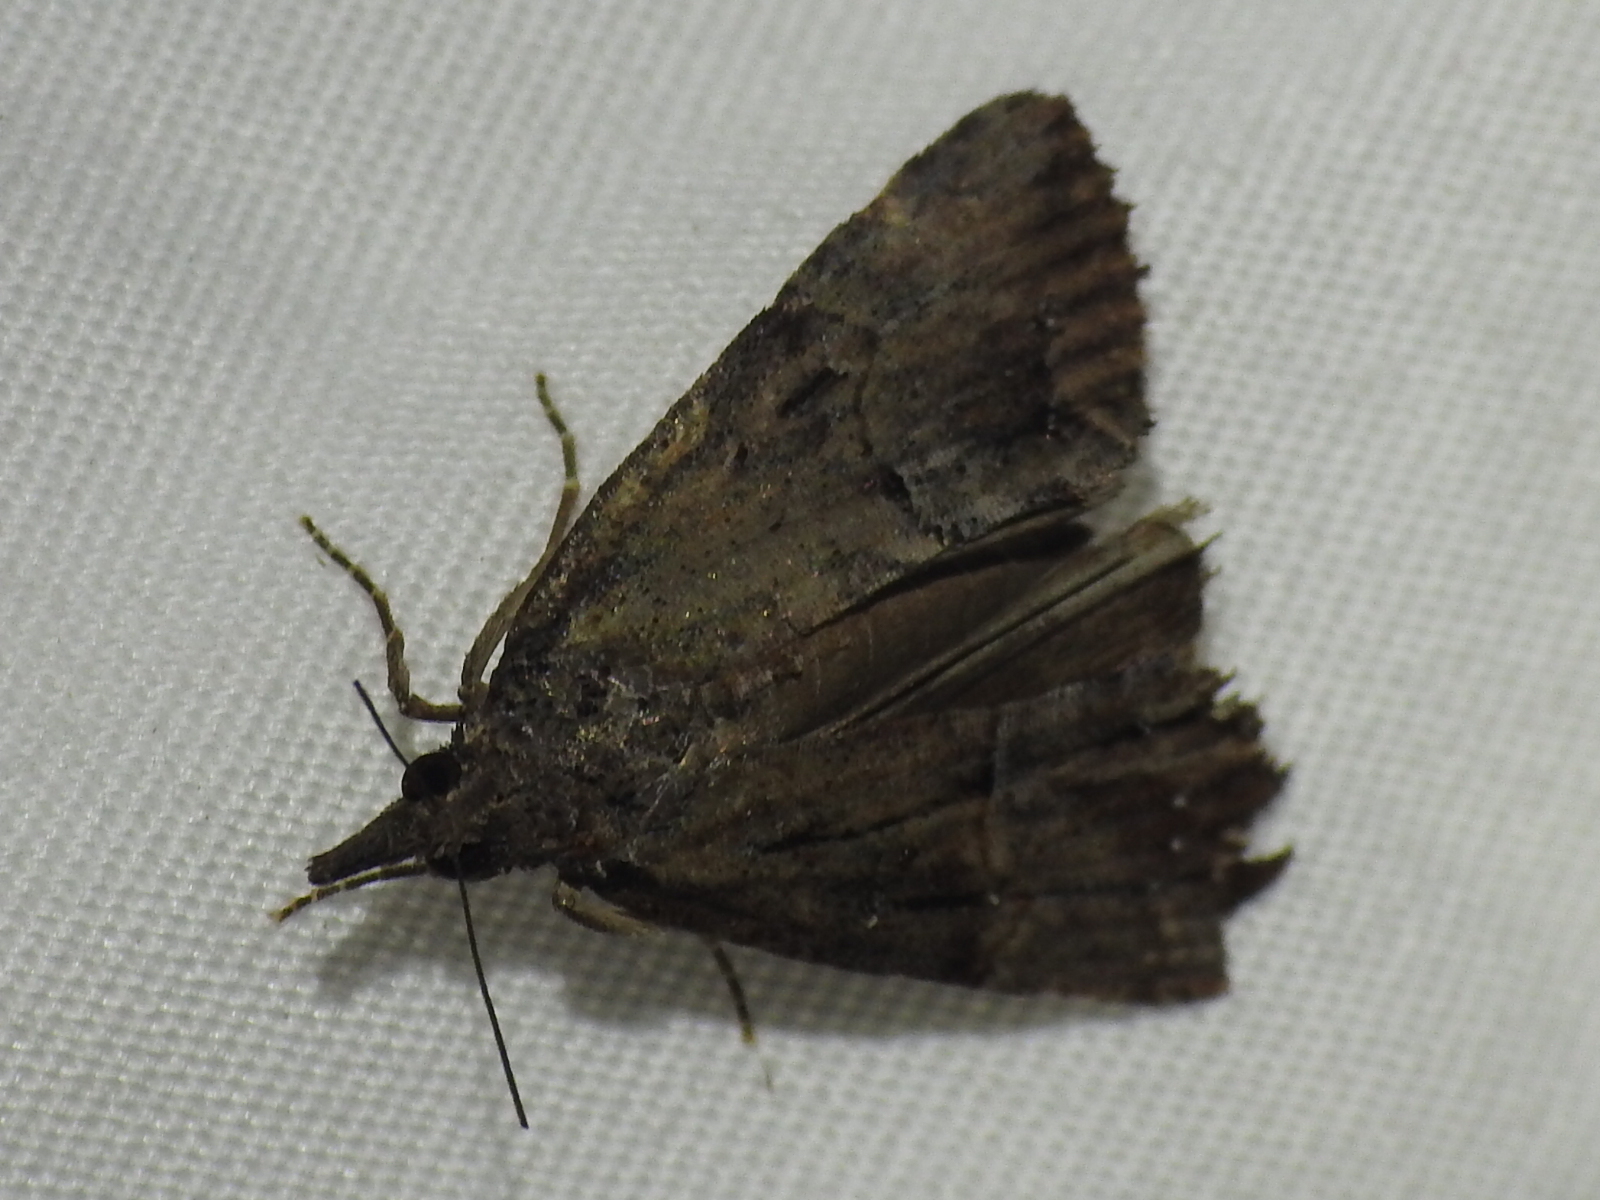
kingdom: Animalia
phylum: Arthropoda
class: Insecta
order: Lepidoptera
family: Erebidae
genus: Hypena
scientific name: Hypena scabra
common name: Green cloverworm
